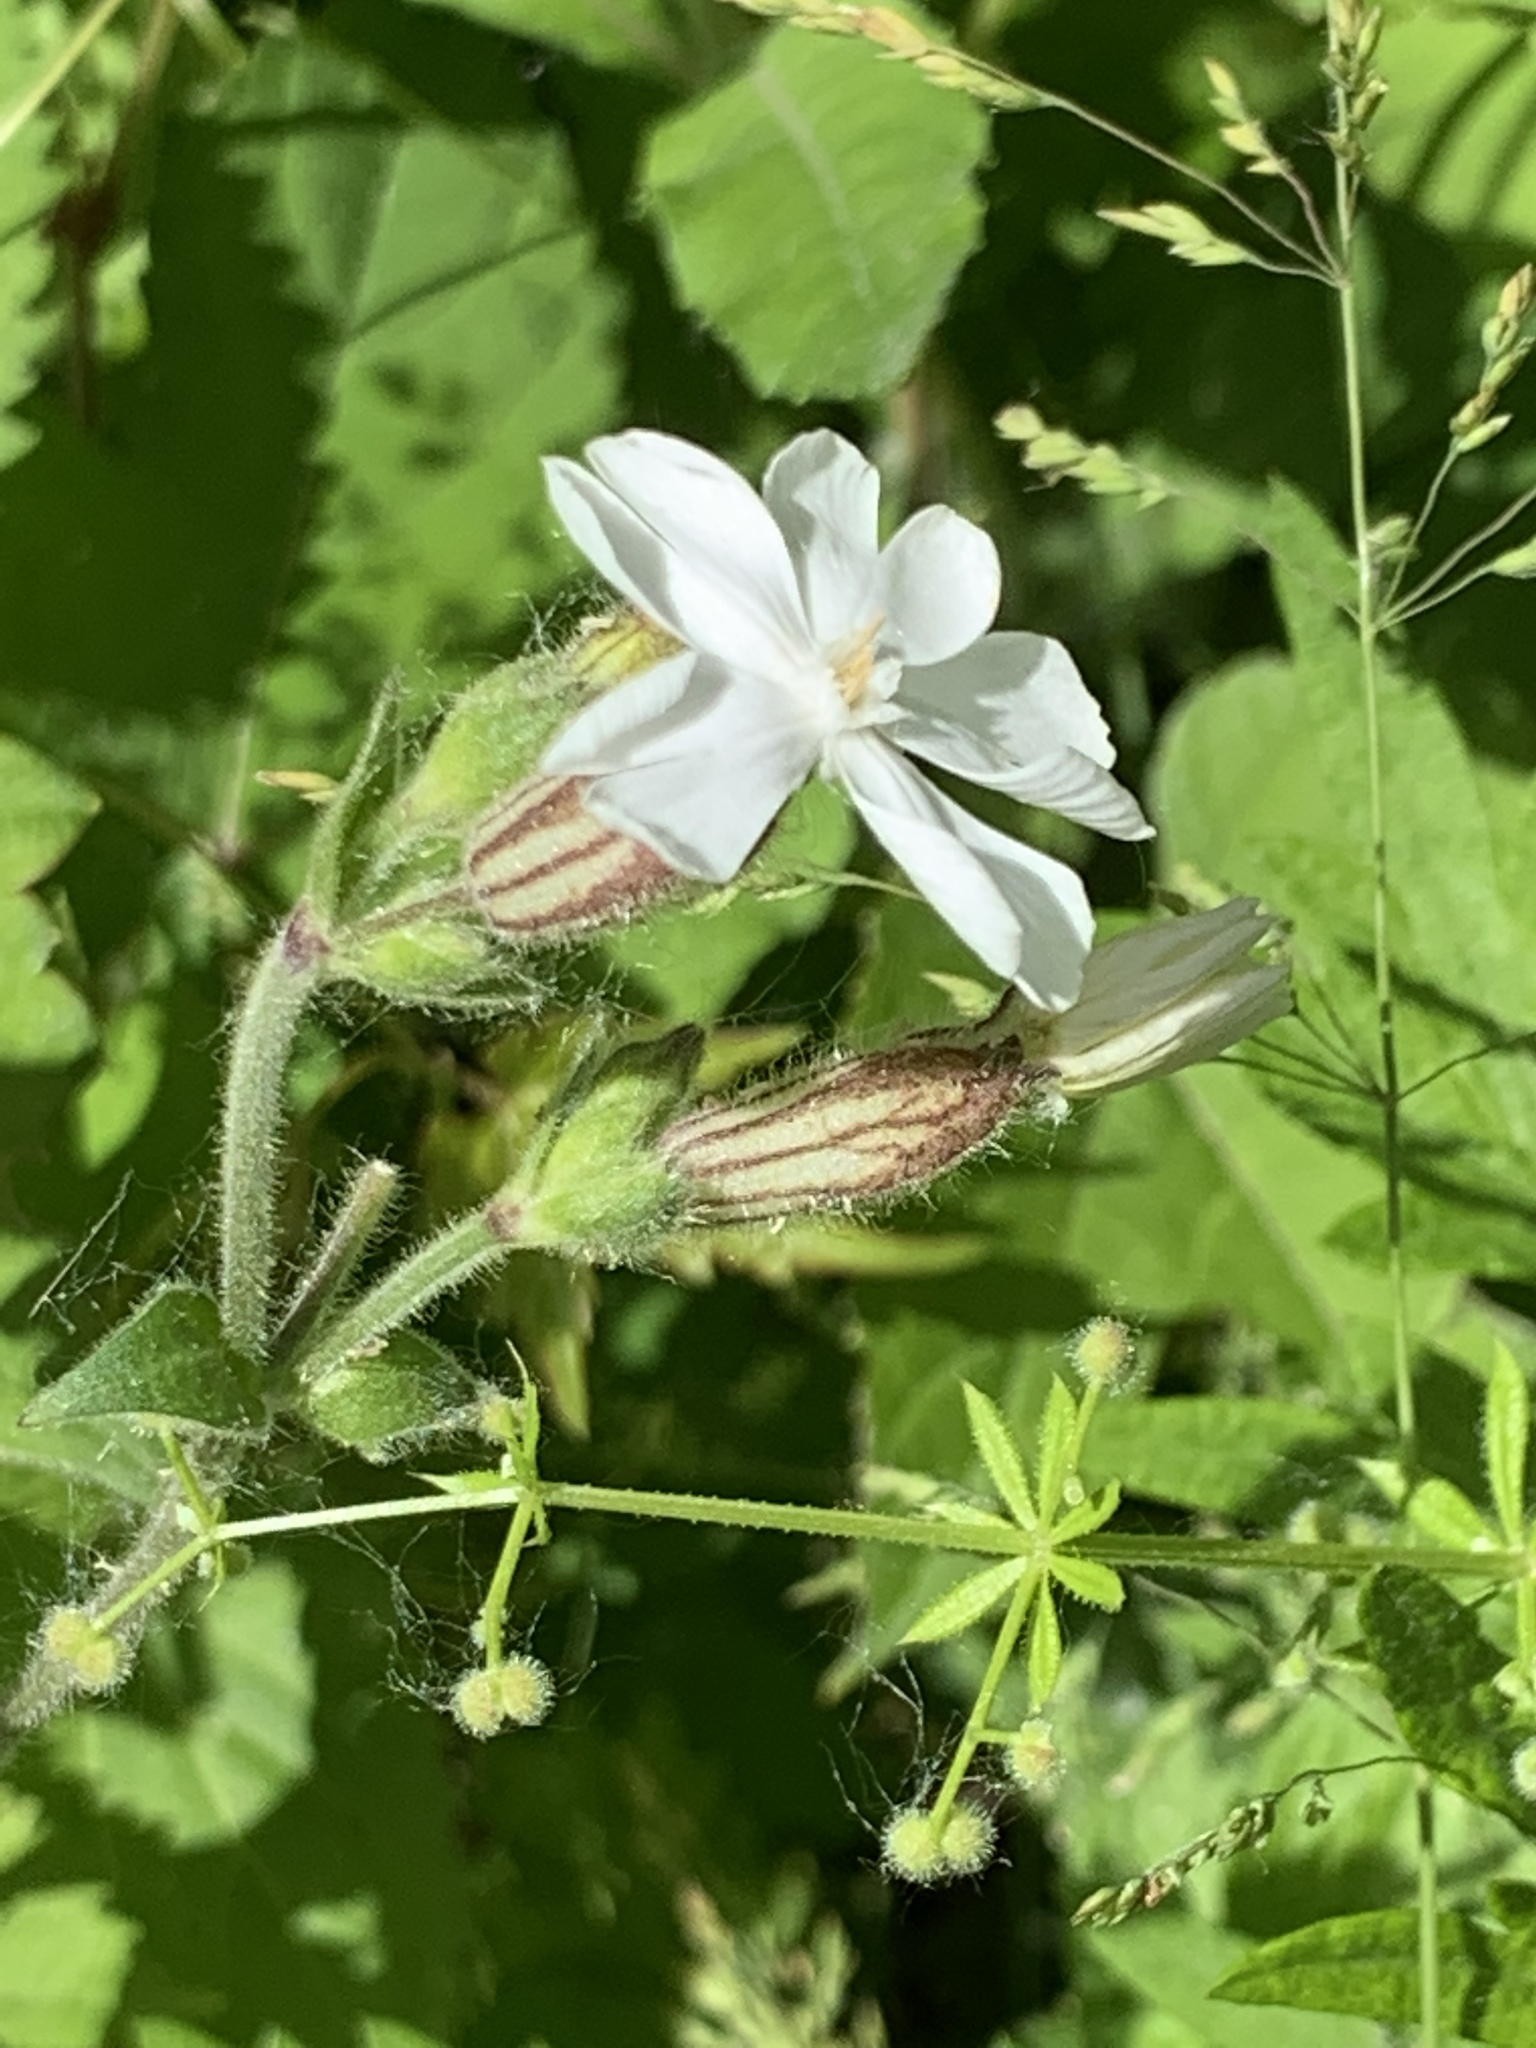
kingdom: Plantae
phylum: Tracheophyta
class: Magnoliopsida
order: Caryophyllales
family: Caryophyllaceae
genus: Silene
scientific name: Silene latifolia
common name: White campion
